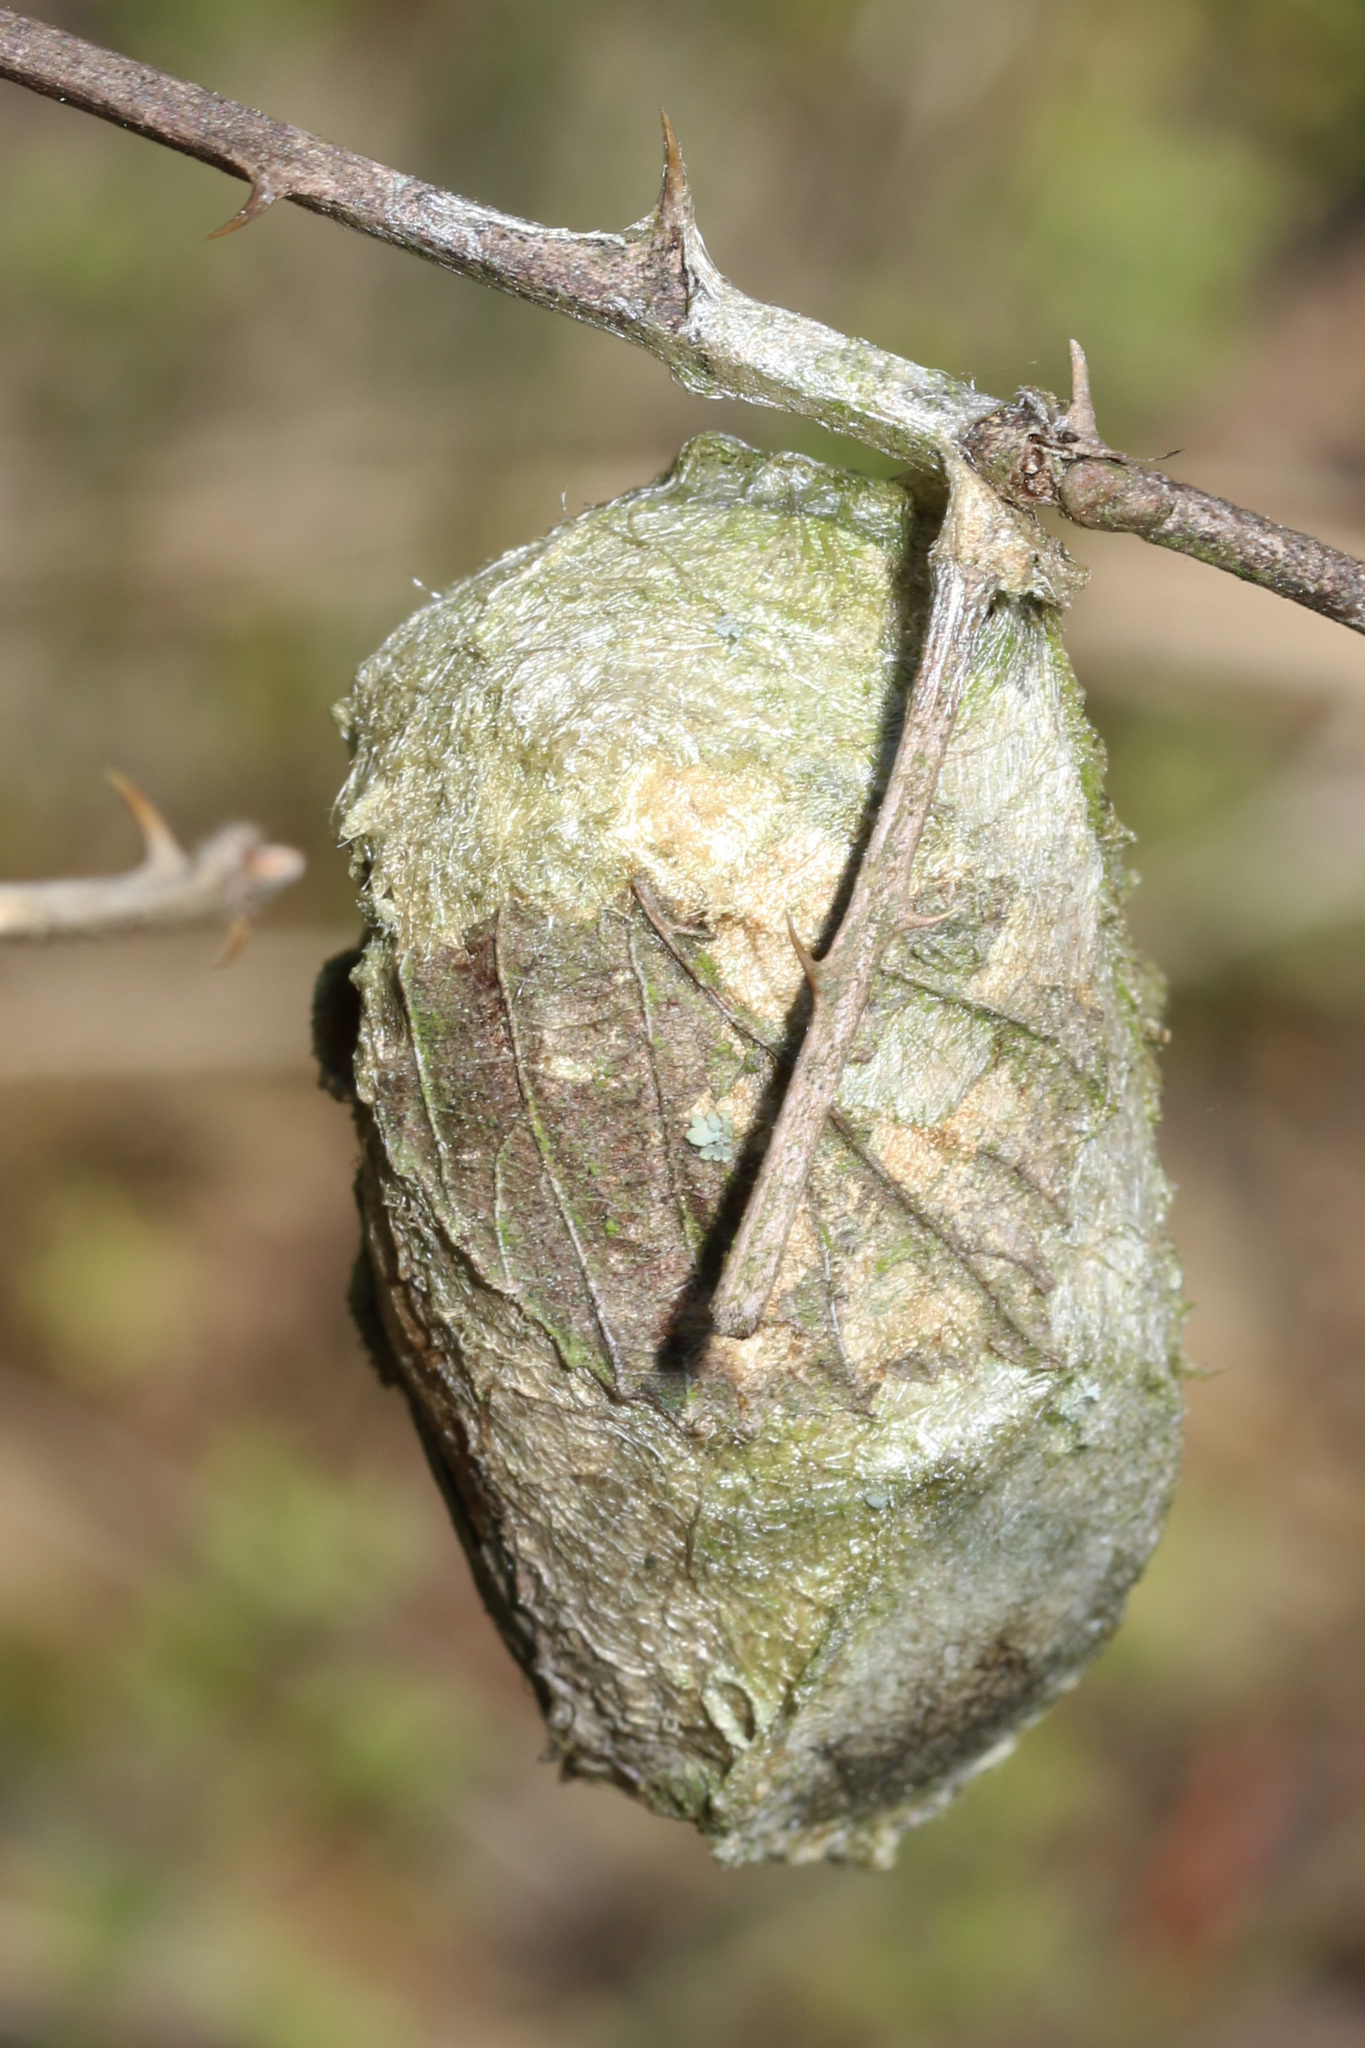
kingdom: Animalia
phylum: Arthropoda
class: Insecta
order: Lepidoptera
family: Saturniidae
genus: Antheraea
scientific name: Antheraea polyphemus
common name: Polyphemus moth
